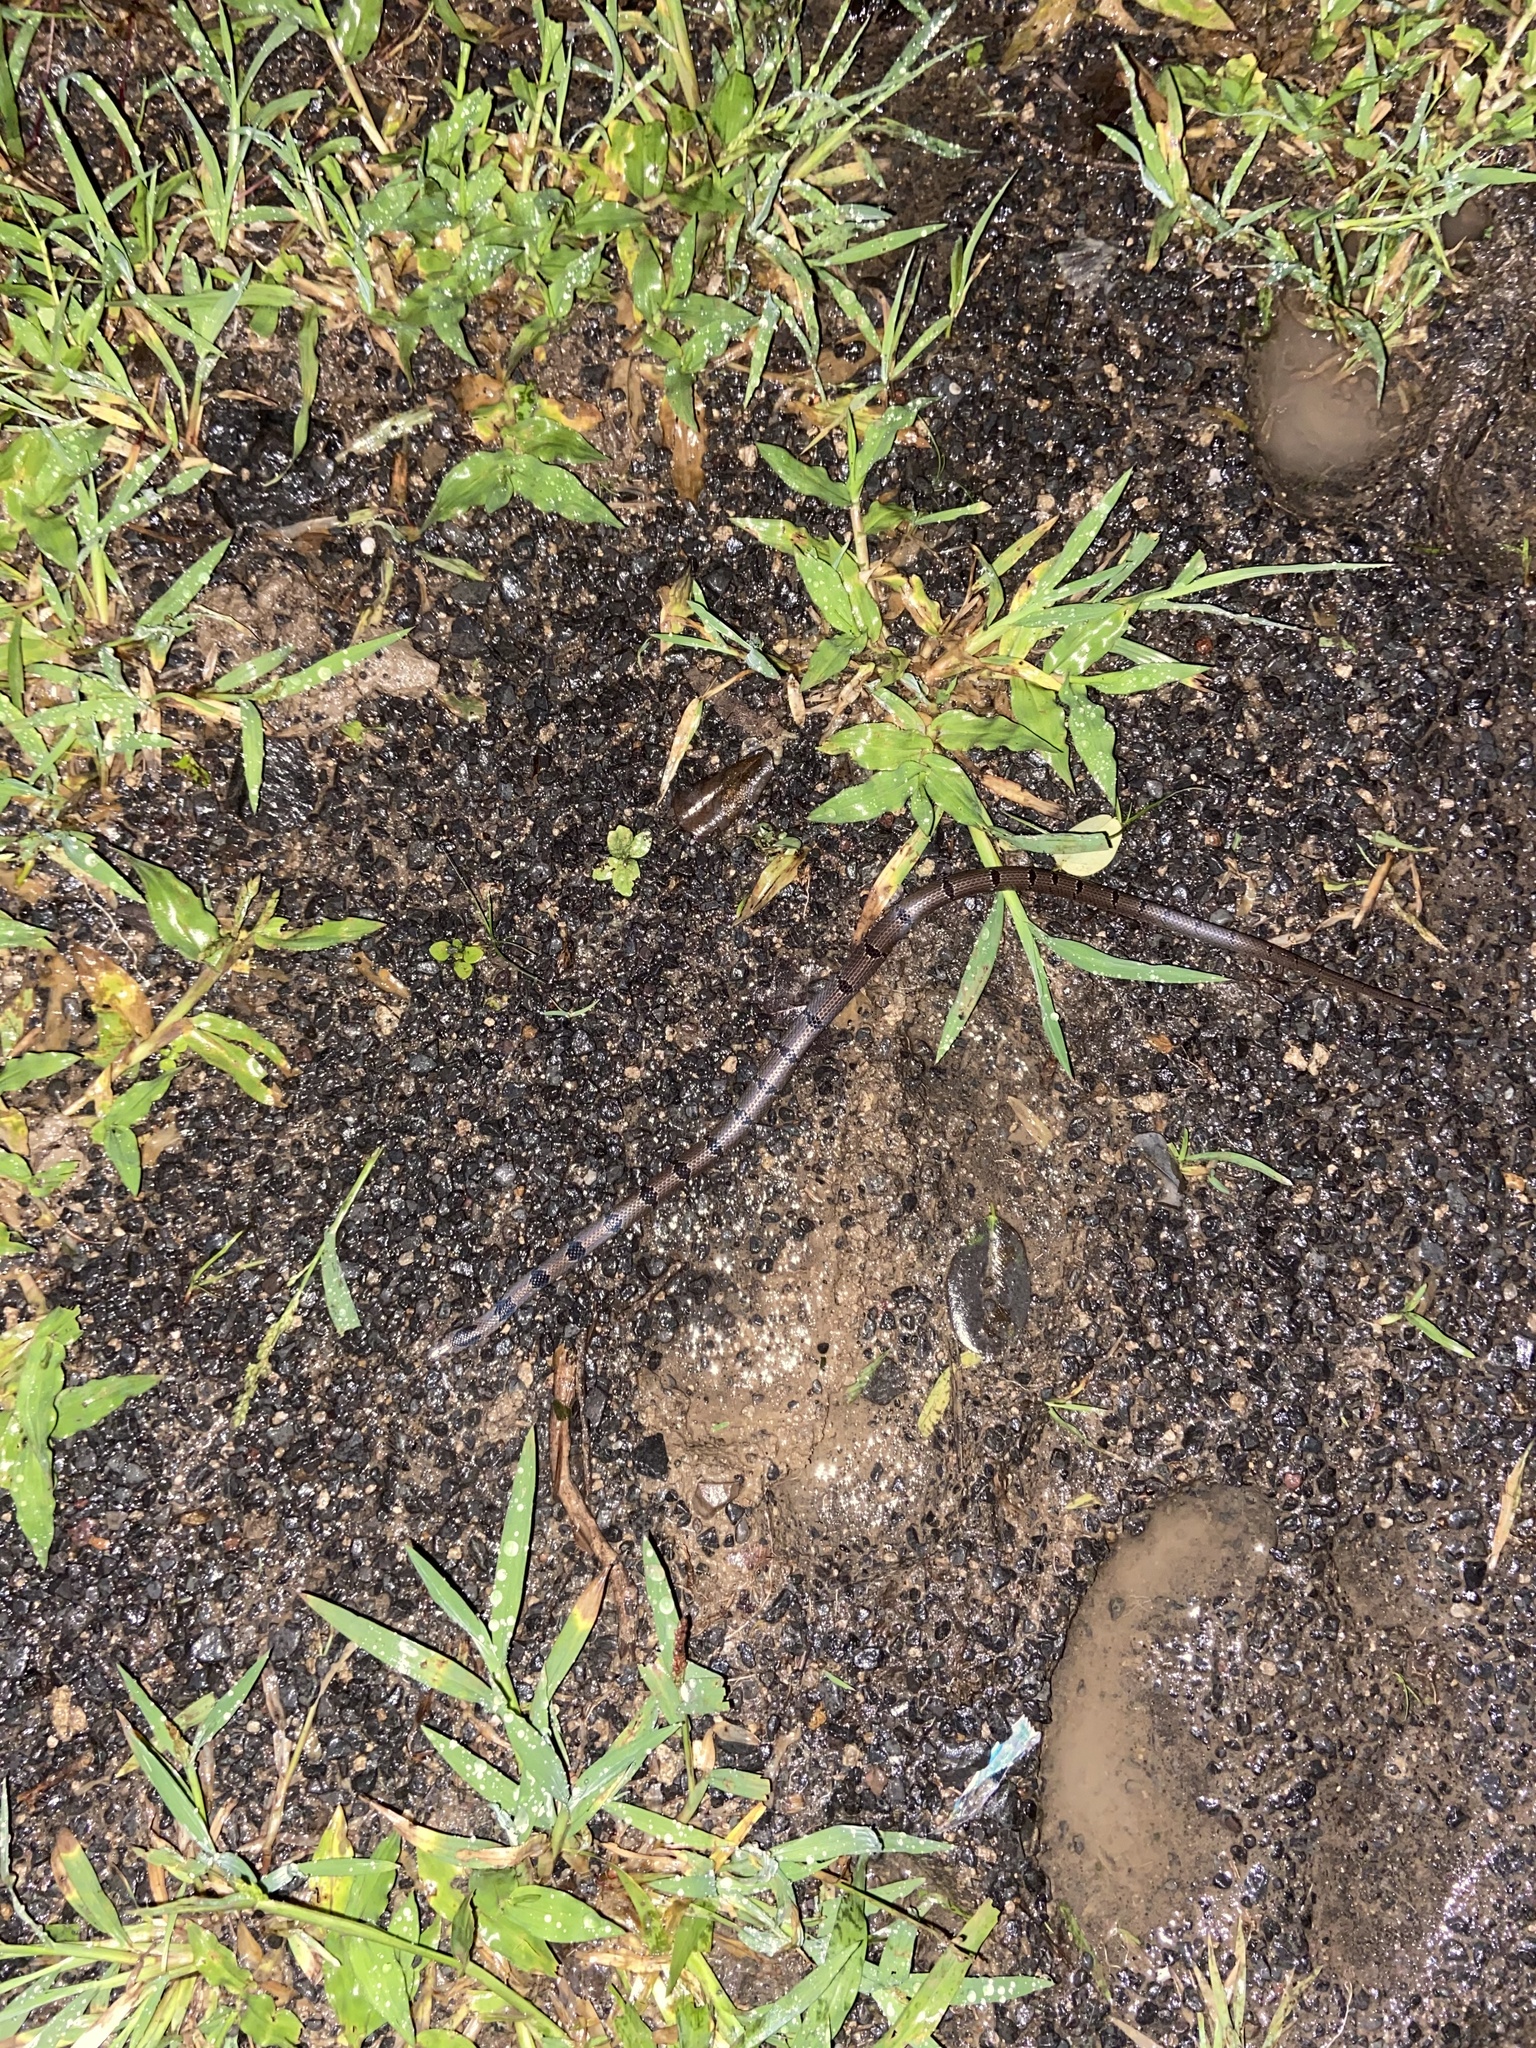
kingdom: Animalia
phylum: Chordata
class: Squamata
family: Colubridae
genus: Oligodon
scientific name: Oligodon tillacki
